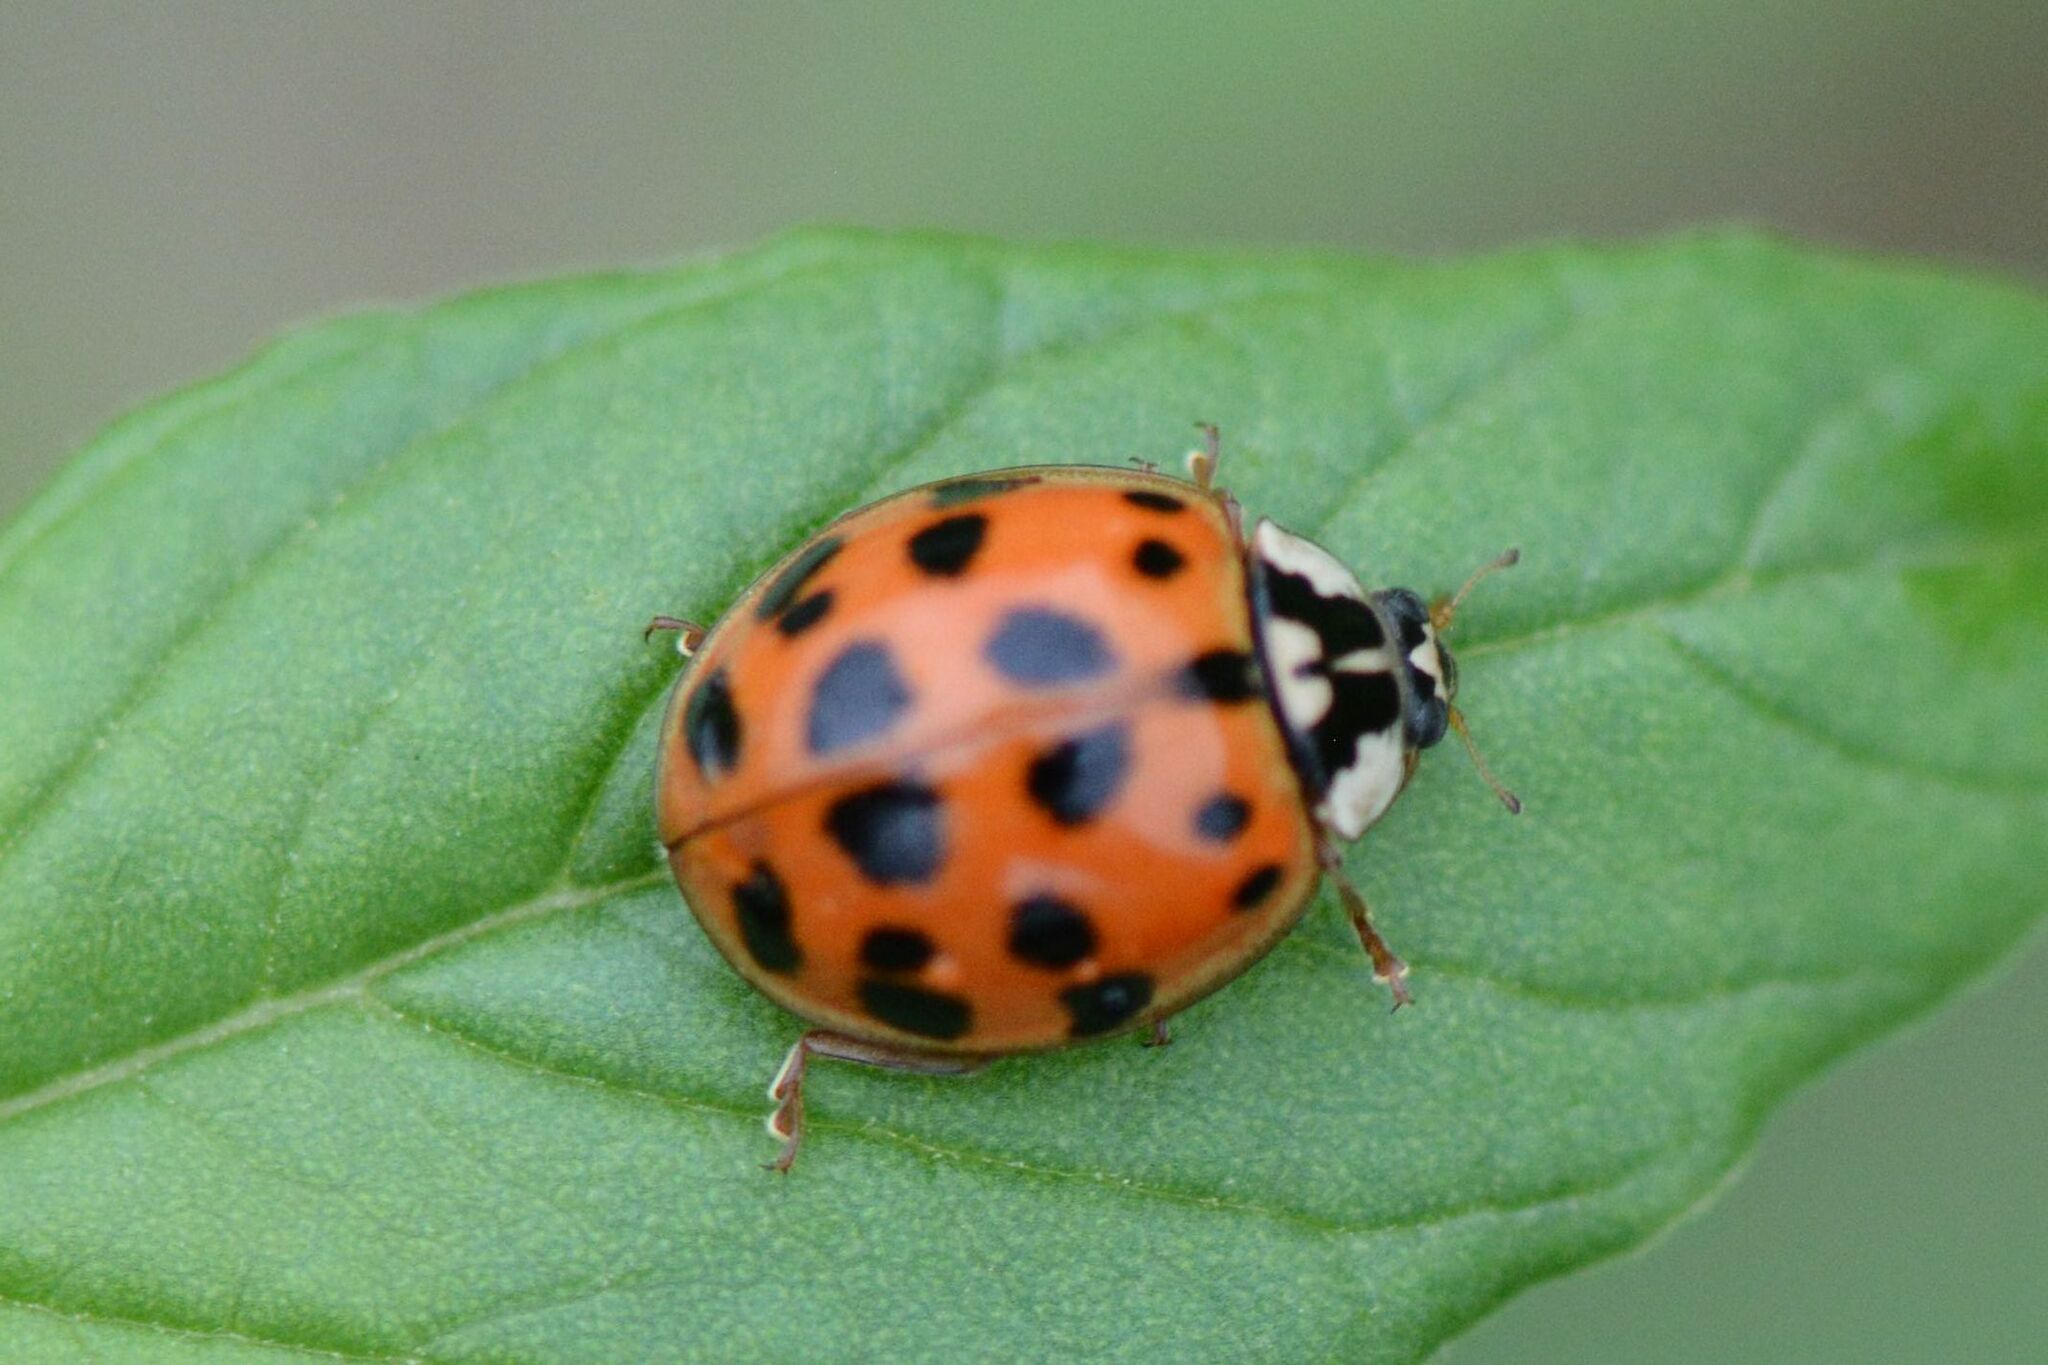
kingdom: Animalia
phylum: Arthropoda
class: Insecta
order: Coleoptera
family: Coccinellidae
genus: Harmonia
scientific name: Harmonia axyridis
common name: Harlequin ladybird
